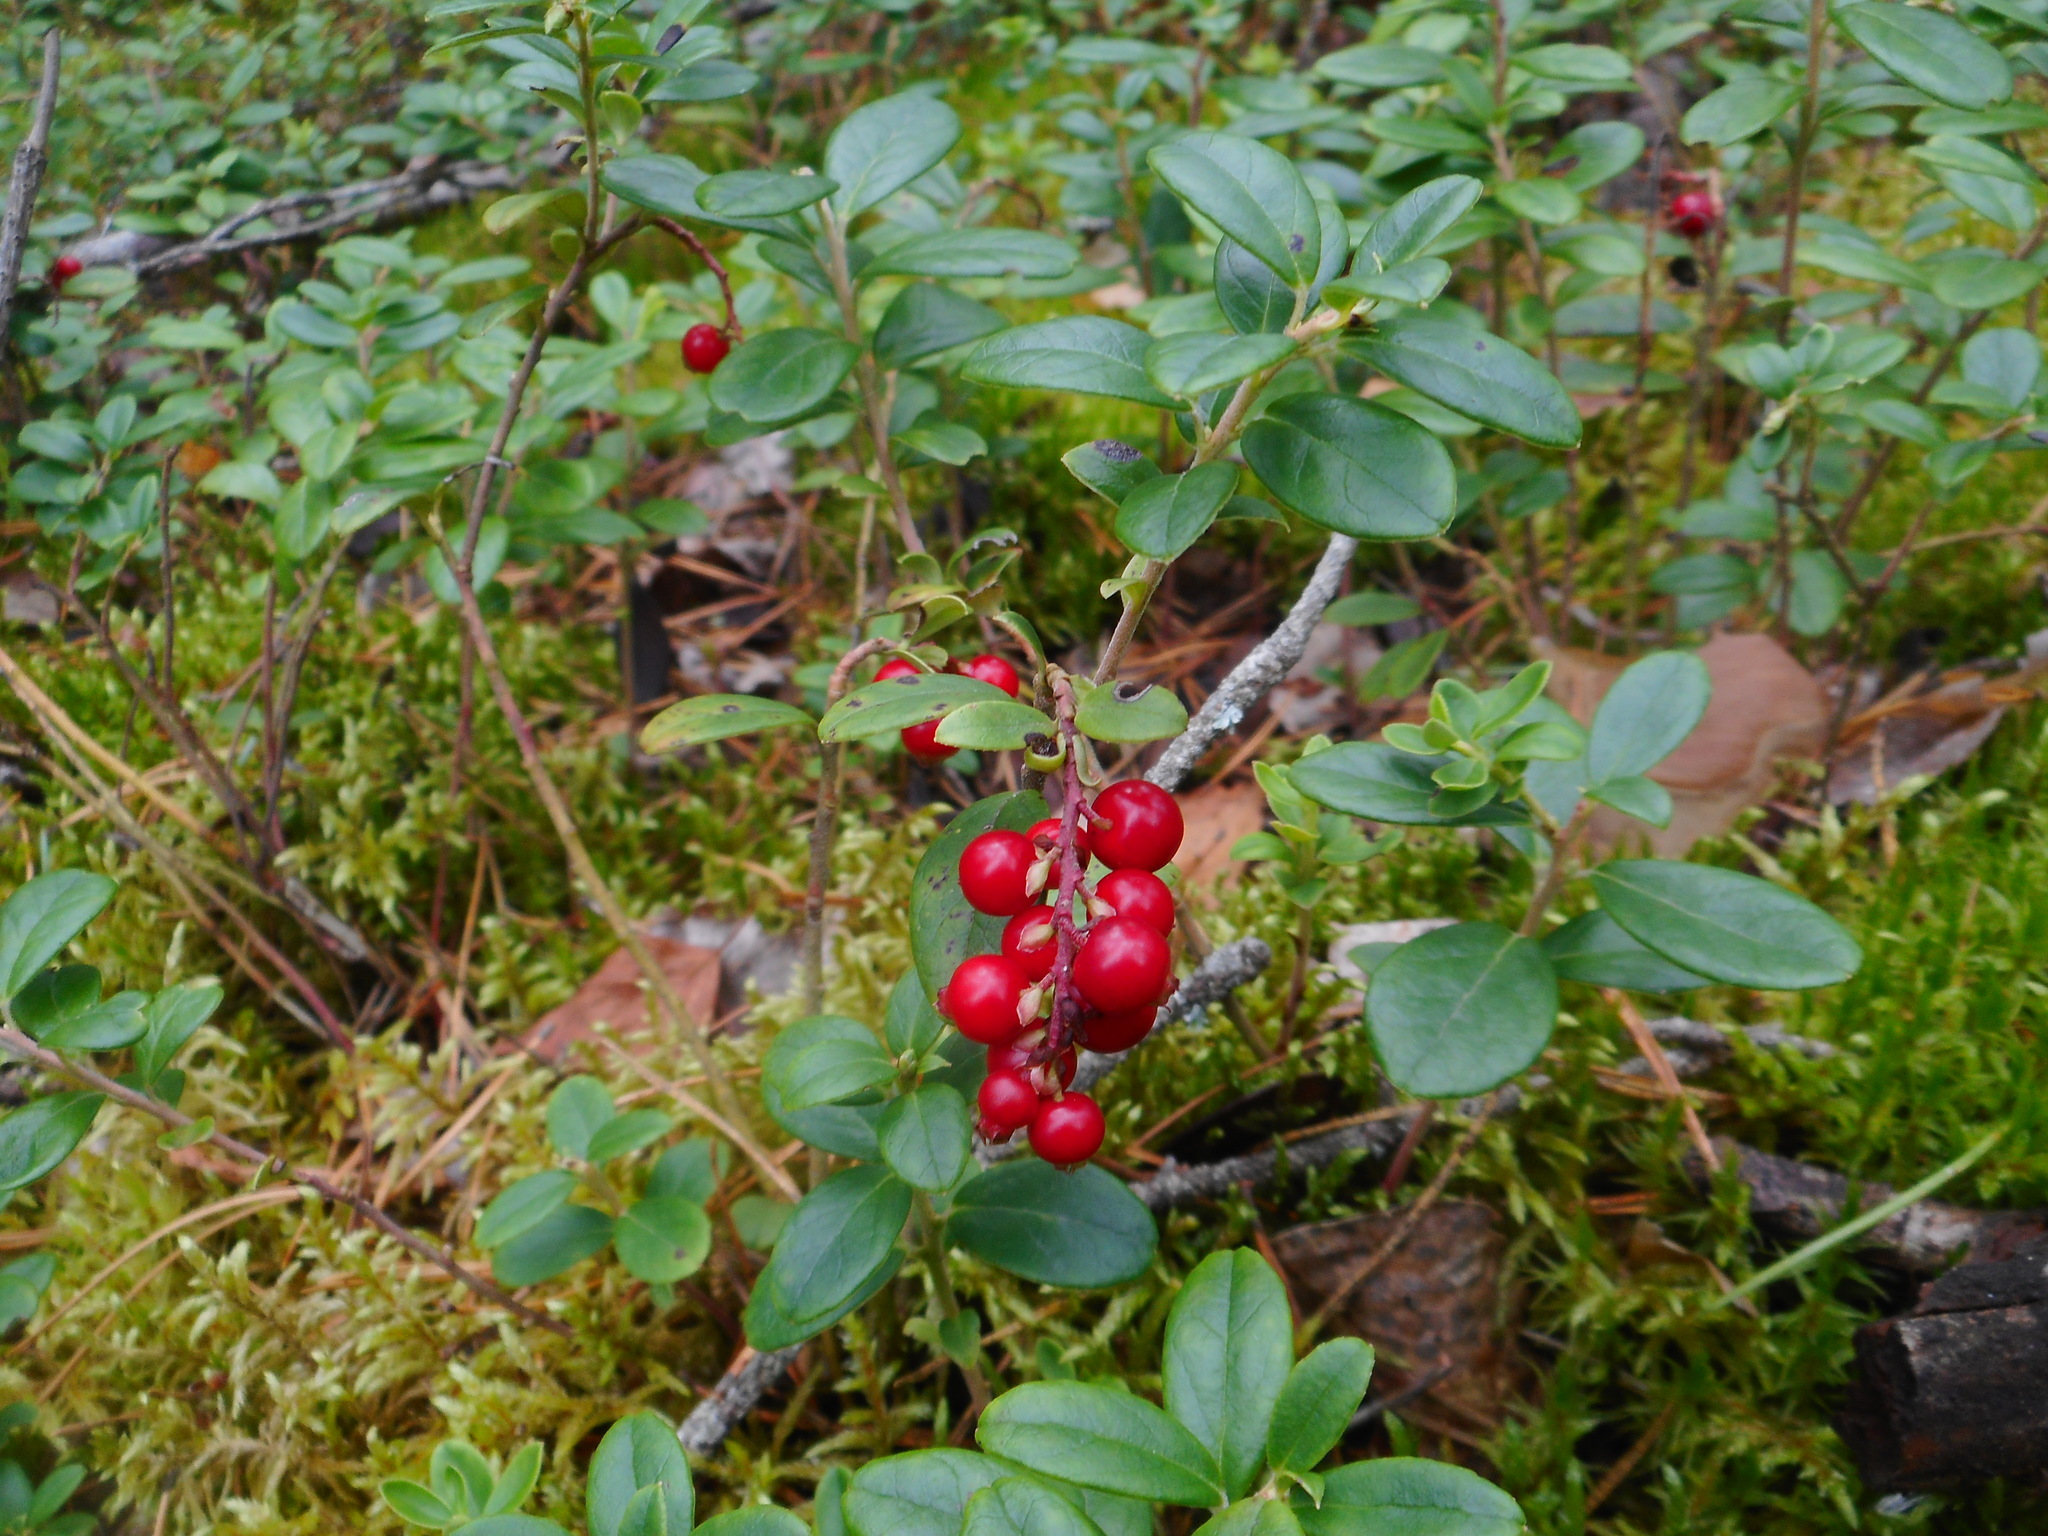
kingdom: Plantae
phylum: Tracheophyta
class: Magnoliopsida
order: Ericales
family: Ericaceae
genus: Vaccinium
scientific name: Vaccinium vitis-idaea
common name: Cowberry
